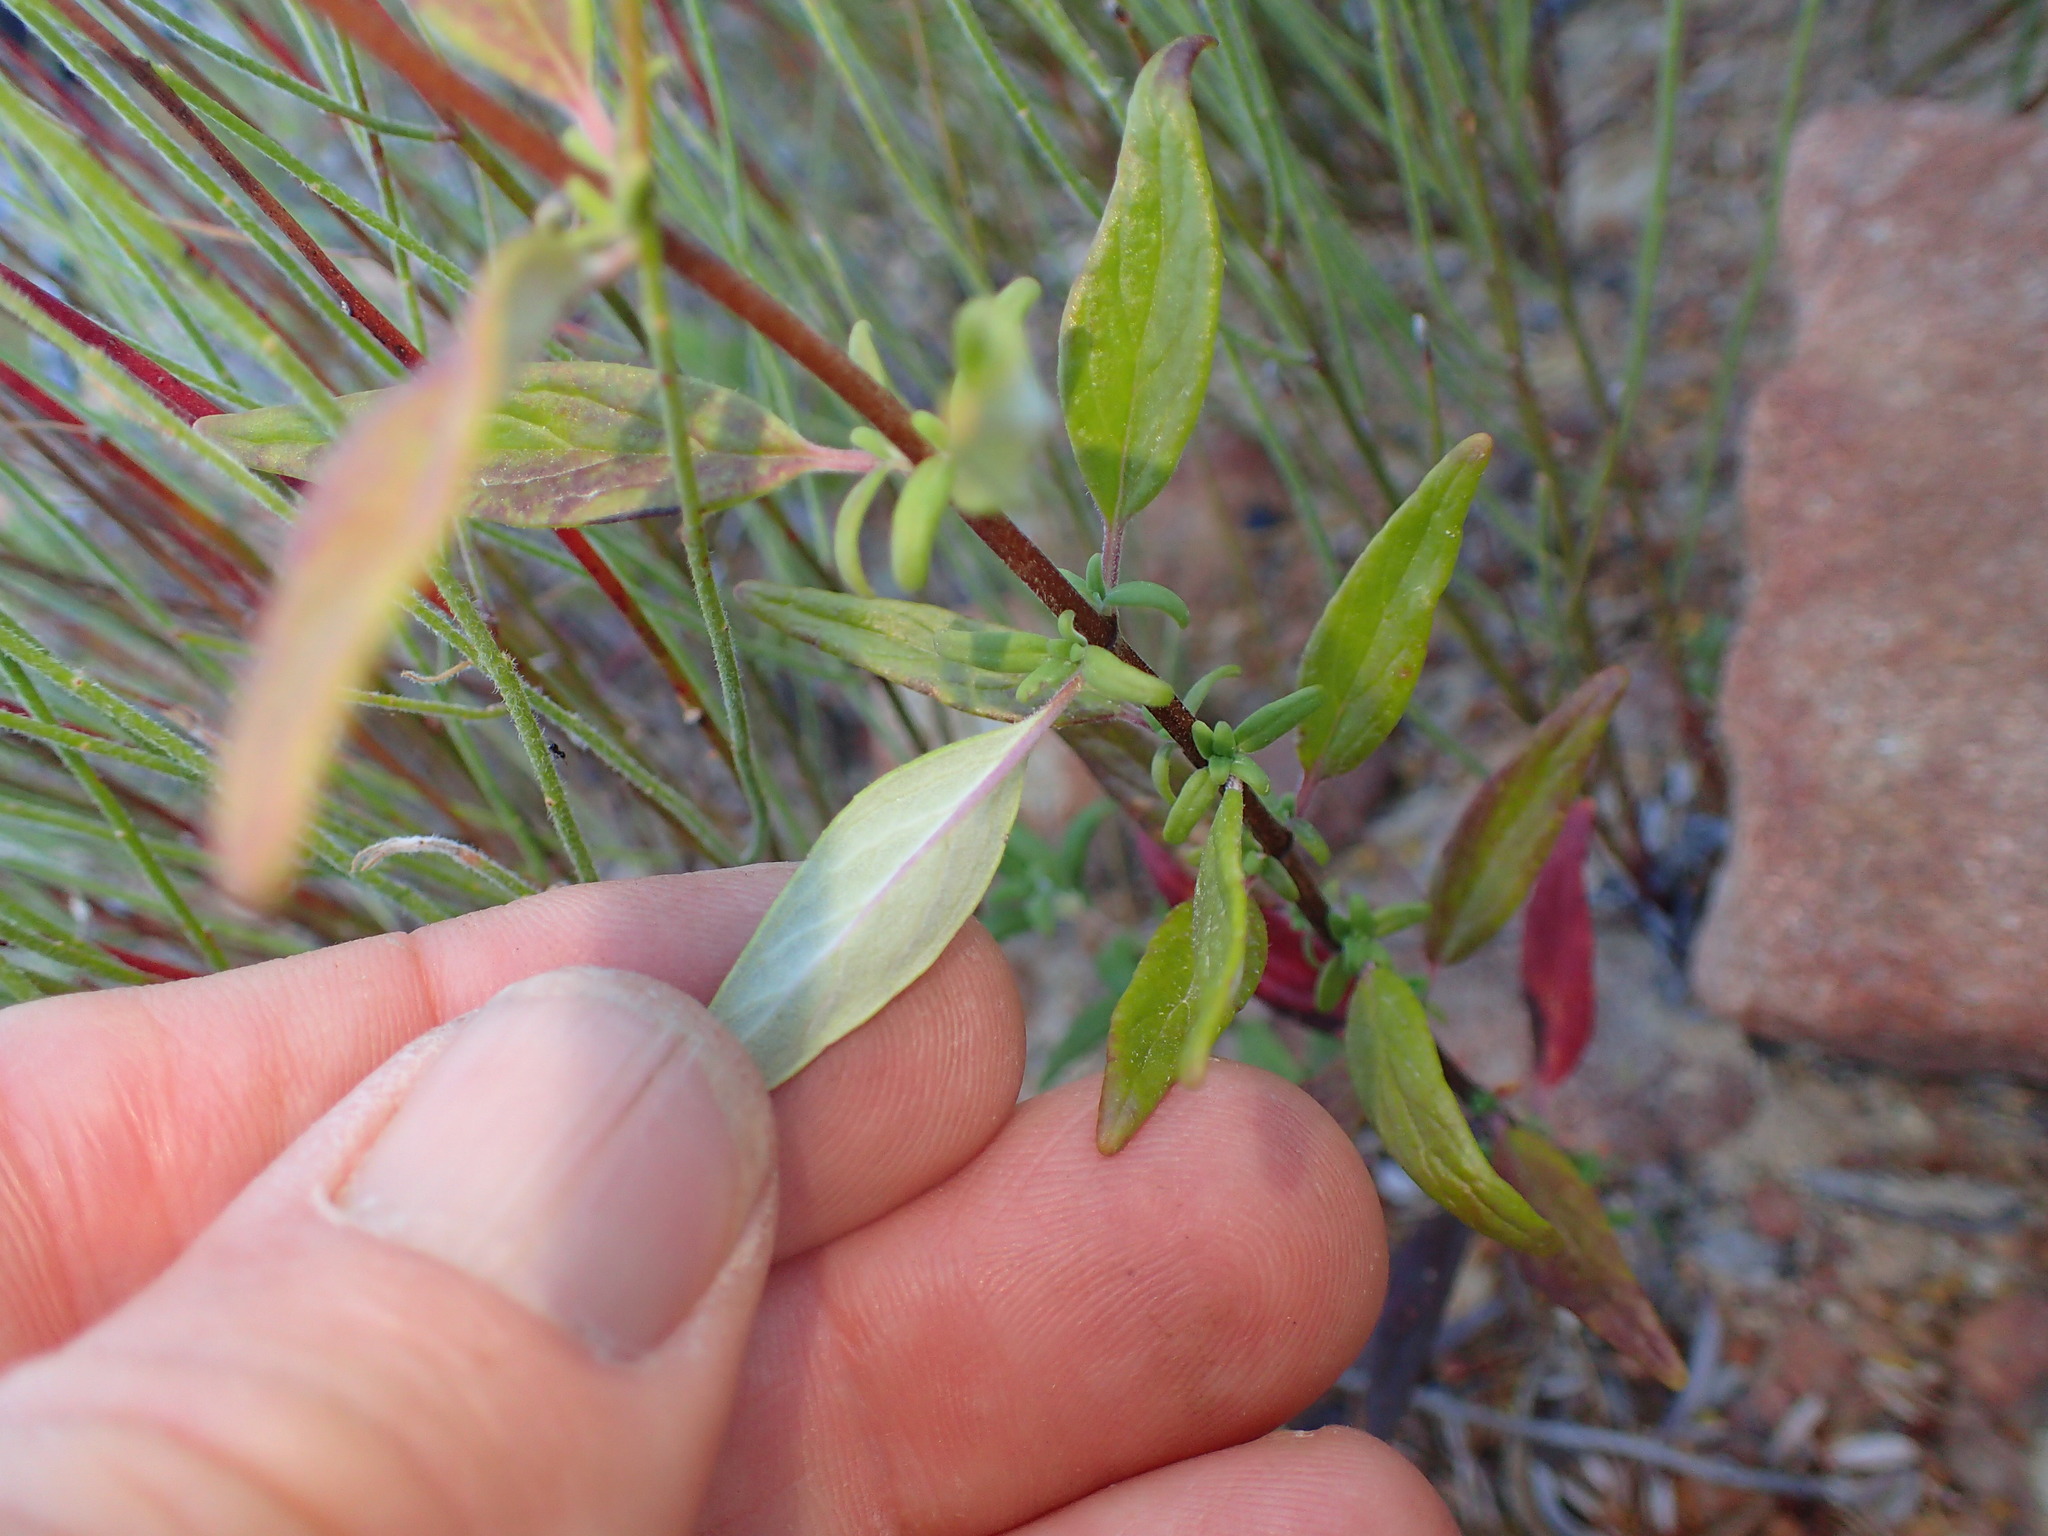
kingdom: Plantae
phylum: Tracheophyta
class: Magnoliopsida
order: Lamiales
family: Lamiaceae
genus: Monardella
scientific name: Monardella hypoleuca
